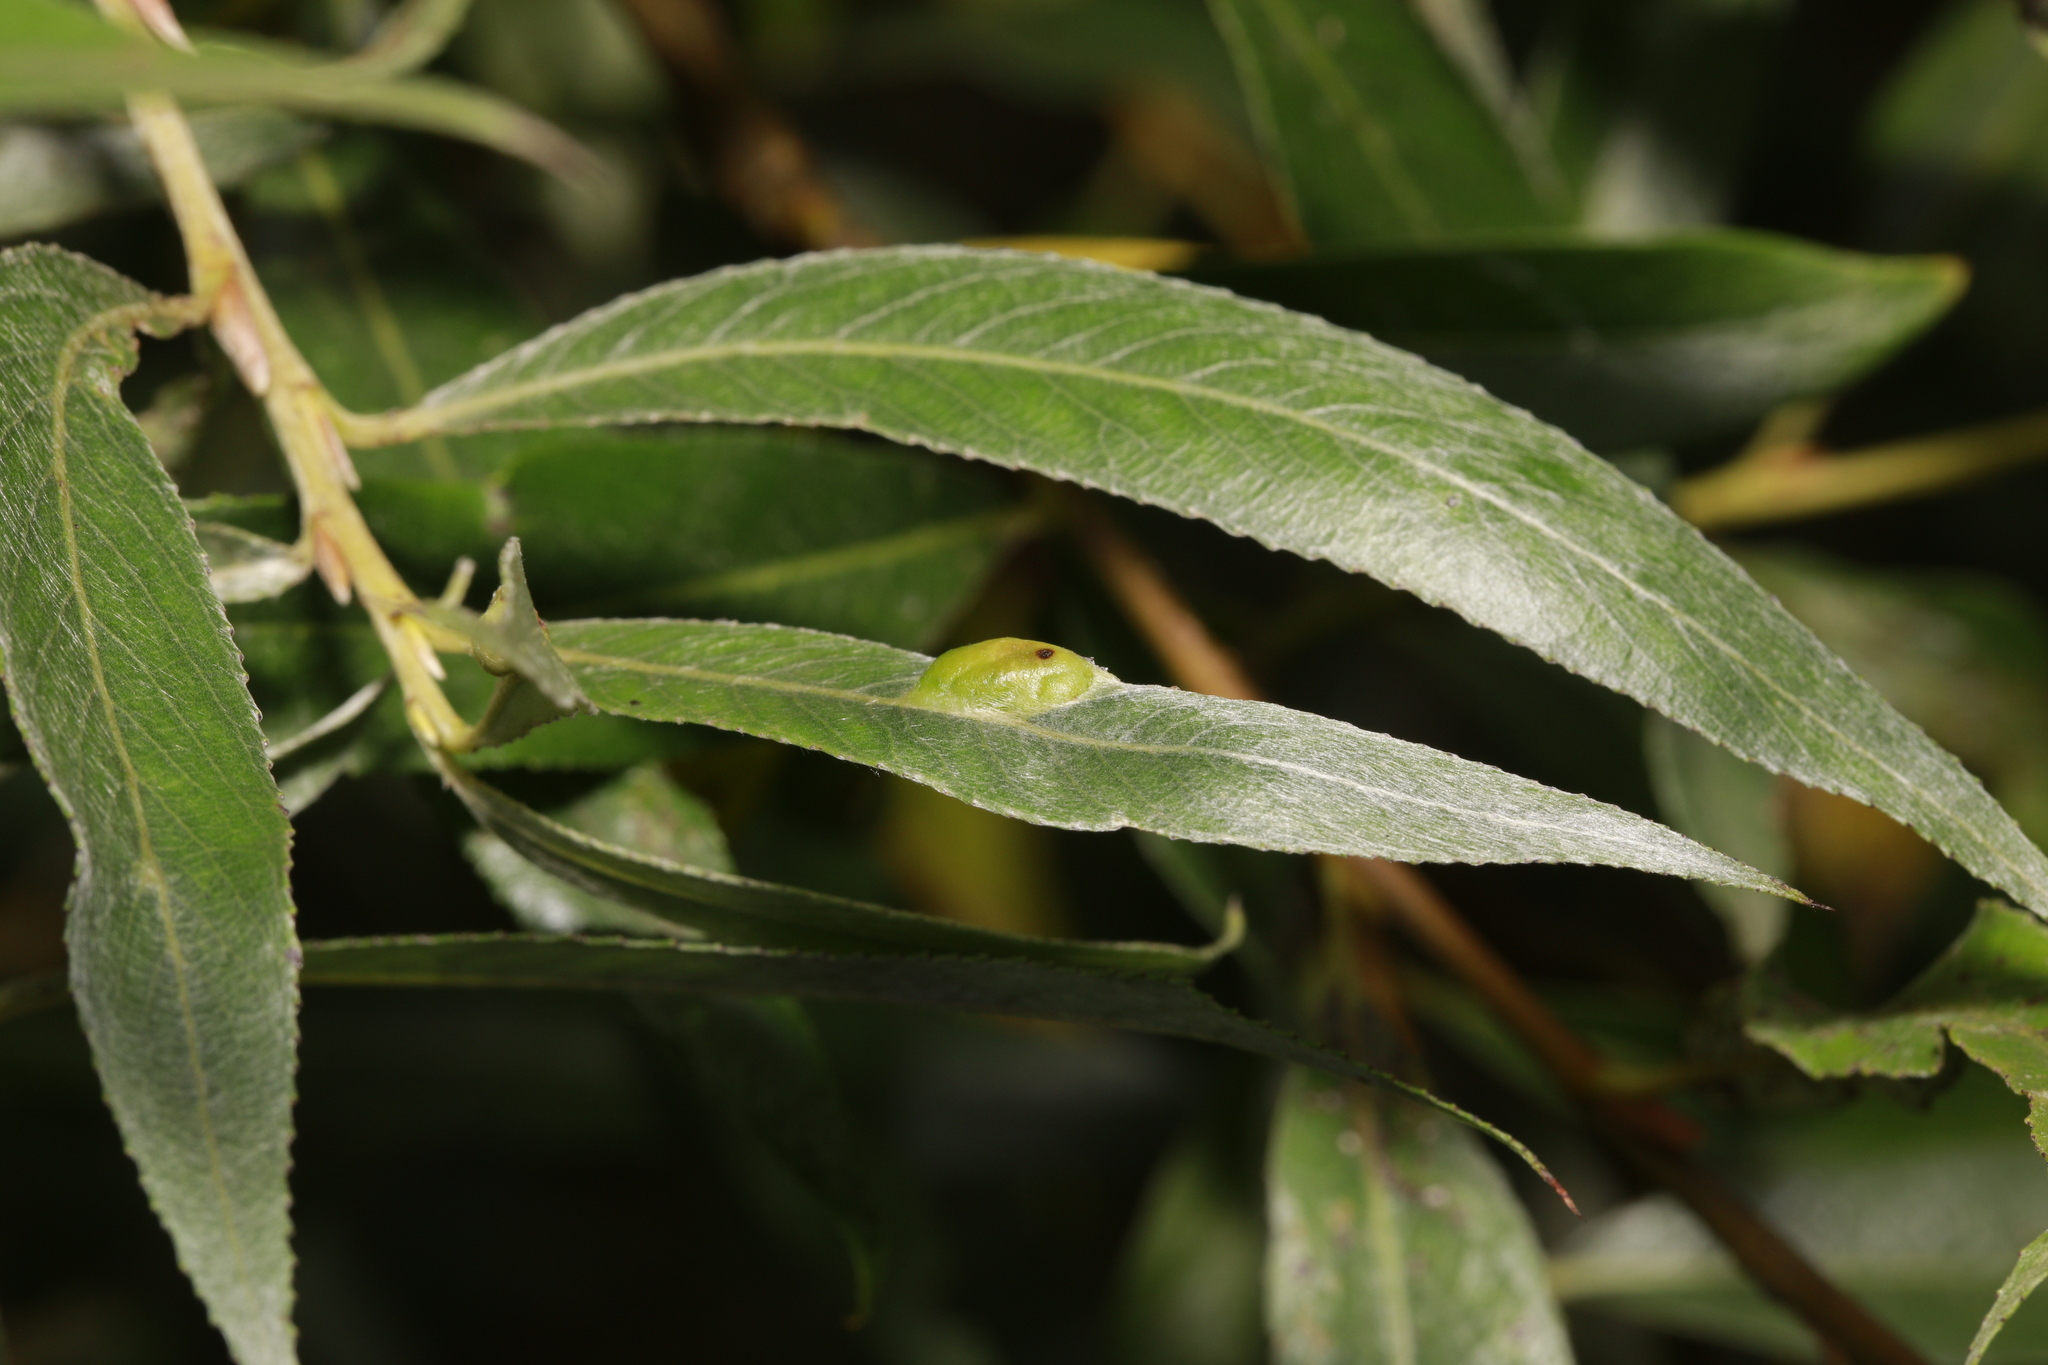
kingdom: Plantae
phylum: Tracheophyta
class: Magnoliopsida
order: Malpighiales
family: Salicaceae
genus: Salix
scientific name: Salix alba
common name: White willow
